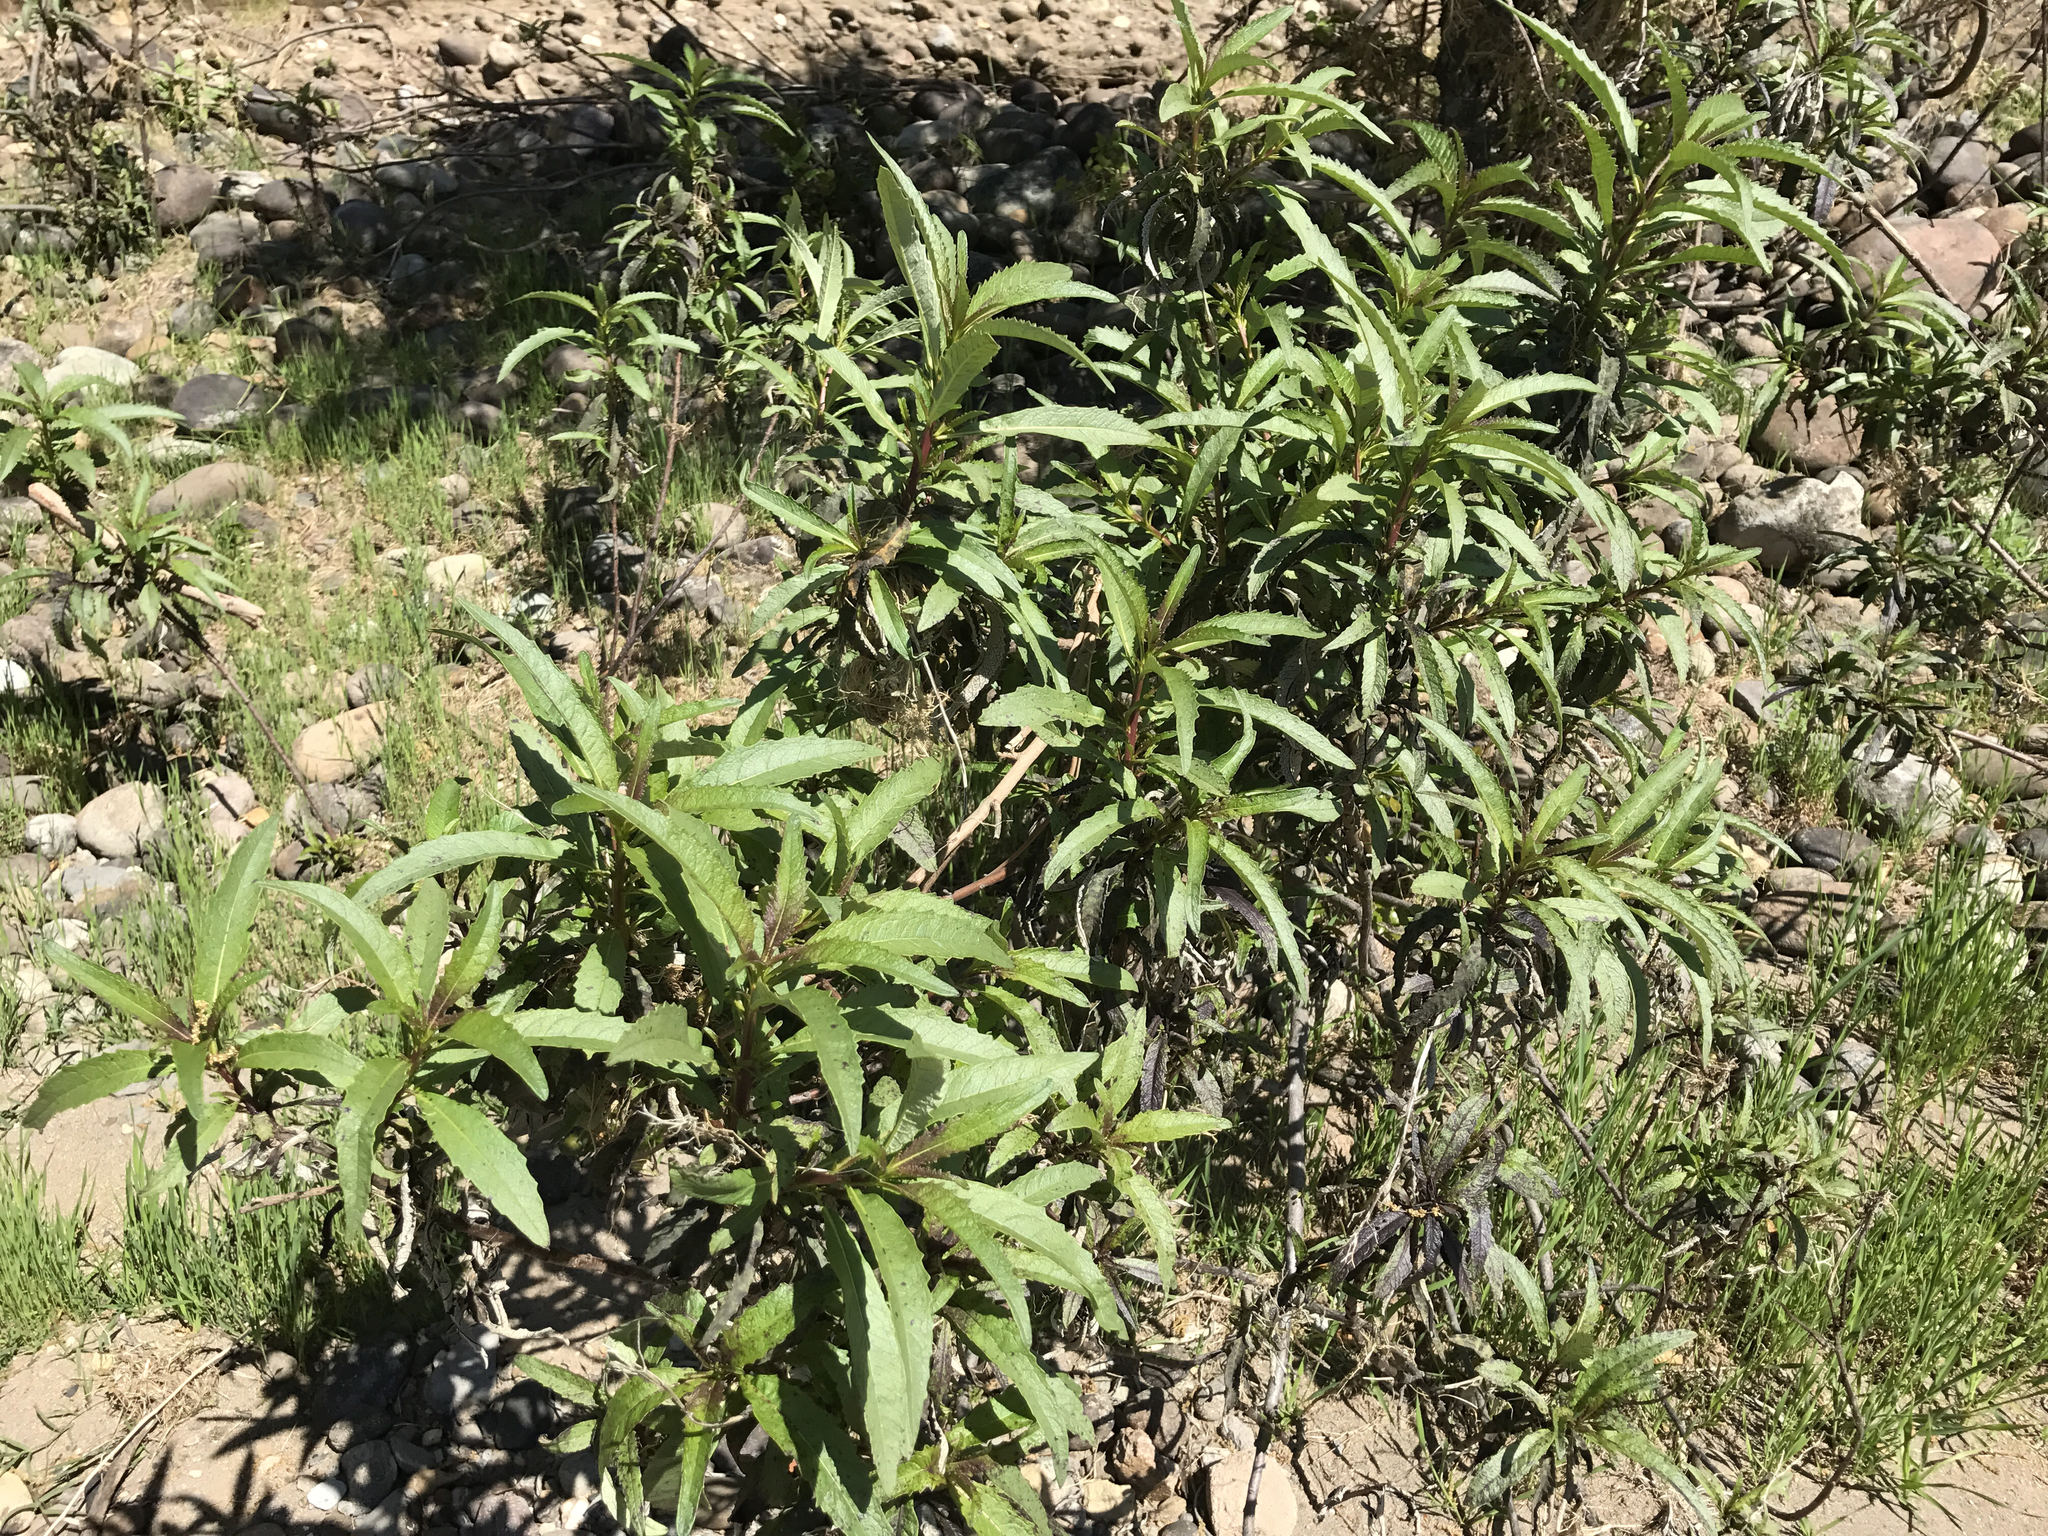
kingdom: Plantae
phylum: Tracheophyta
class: Magnoliopsida
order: Boraginales
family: Namaceae
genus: Eriodictyon
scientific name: Eriodictyon californicum
